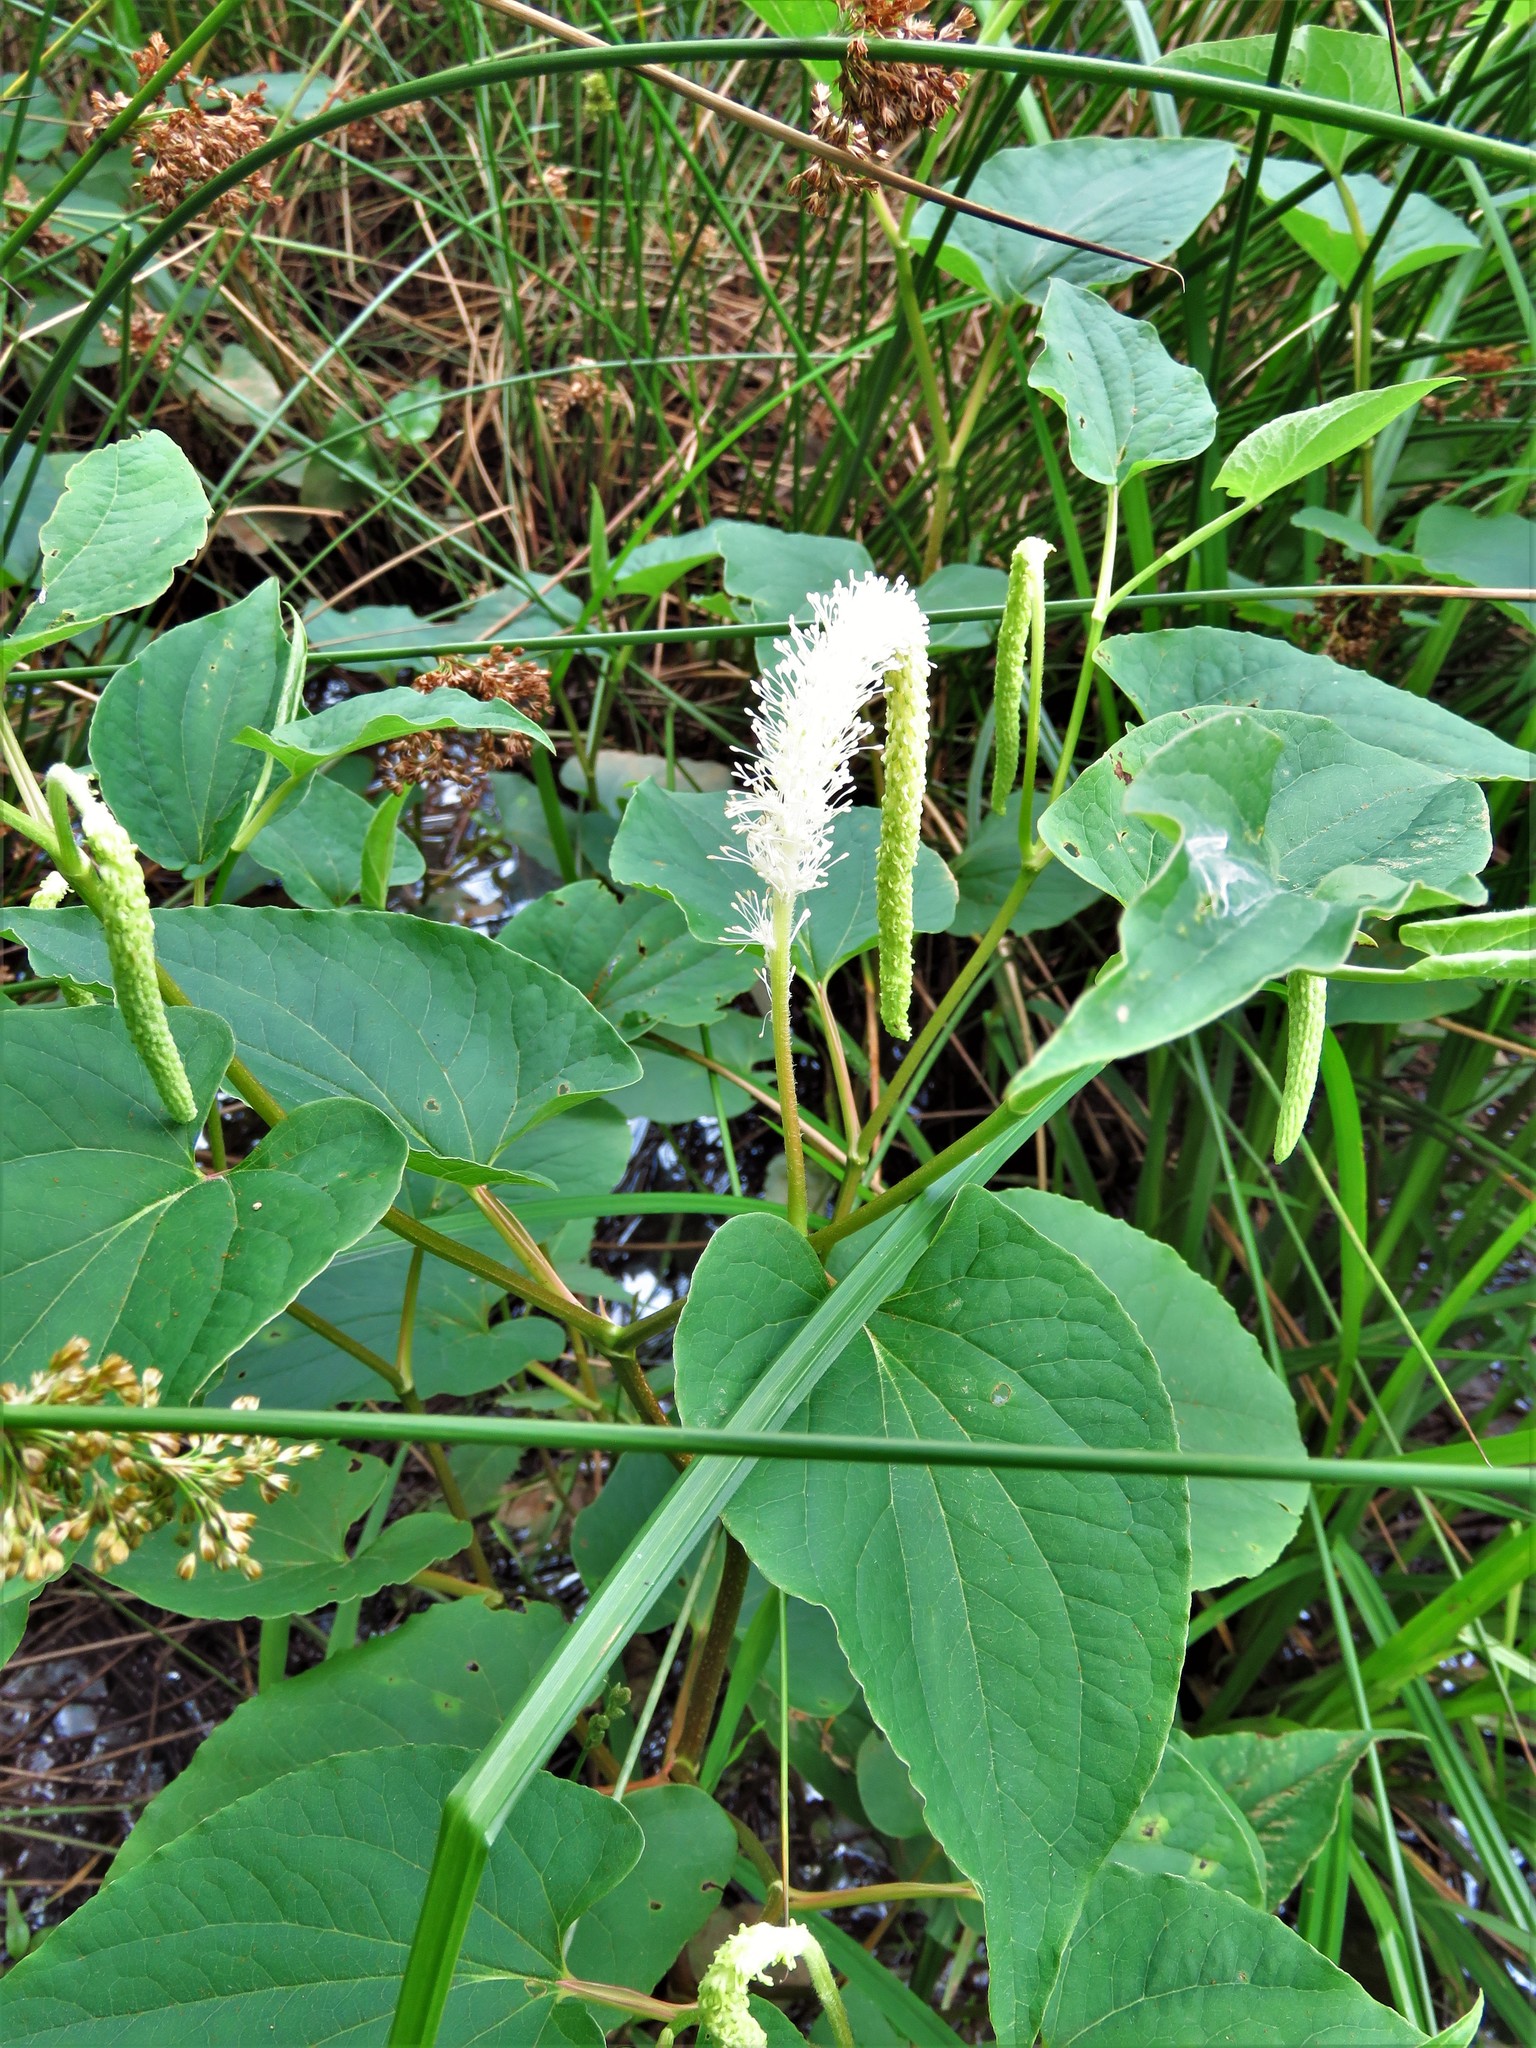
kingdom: Plantae
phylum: Tracheophyta
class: Magnoliopsida
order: Piperales
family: Saururaceae
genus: Saururus
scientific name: Saururus cernuus
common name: Lizard's-tail
